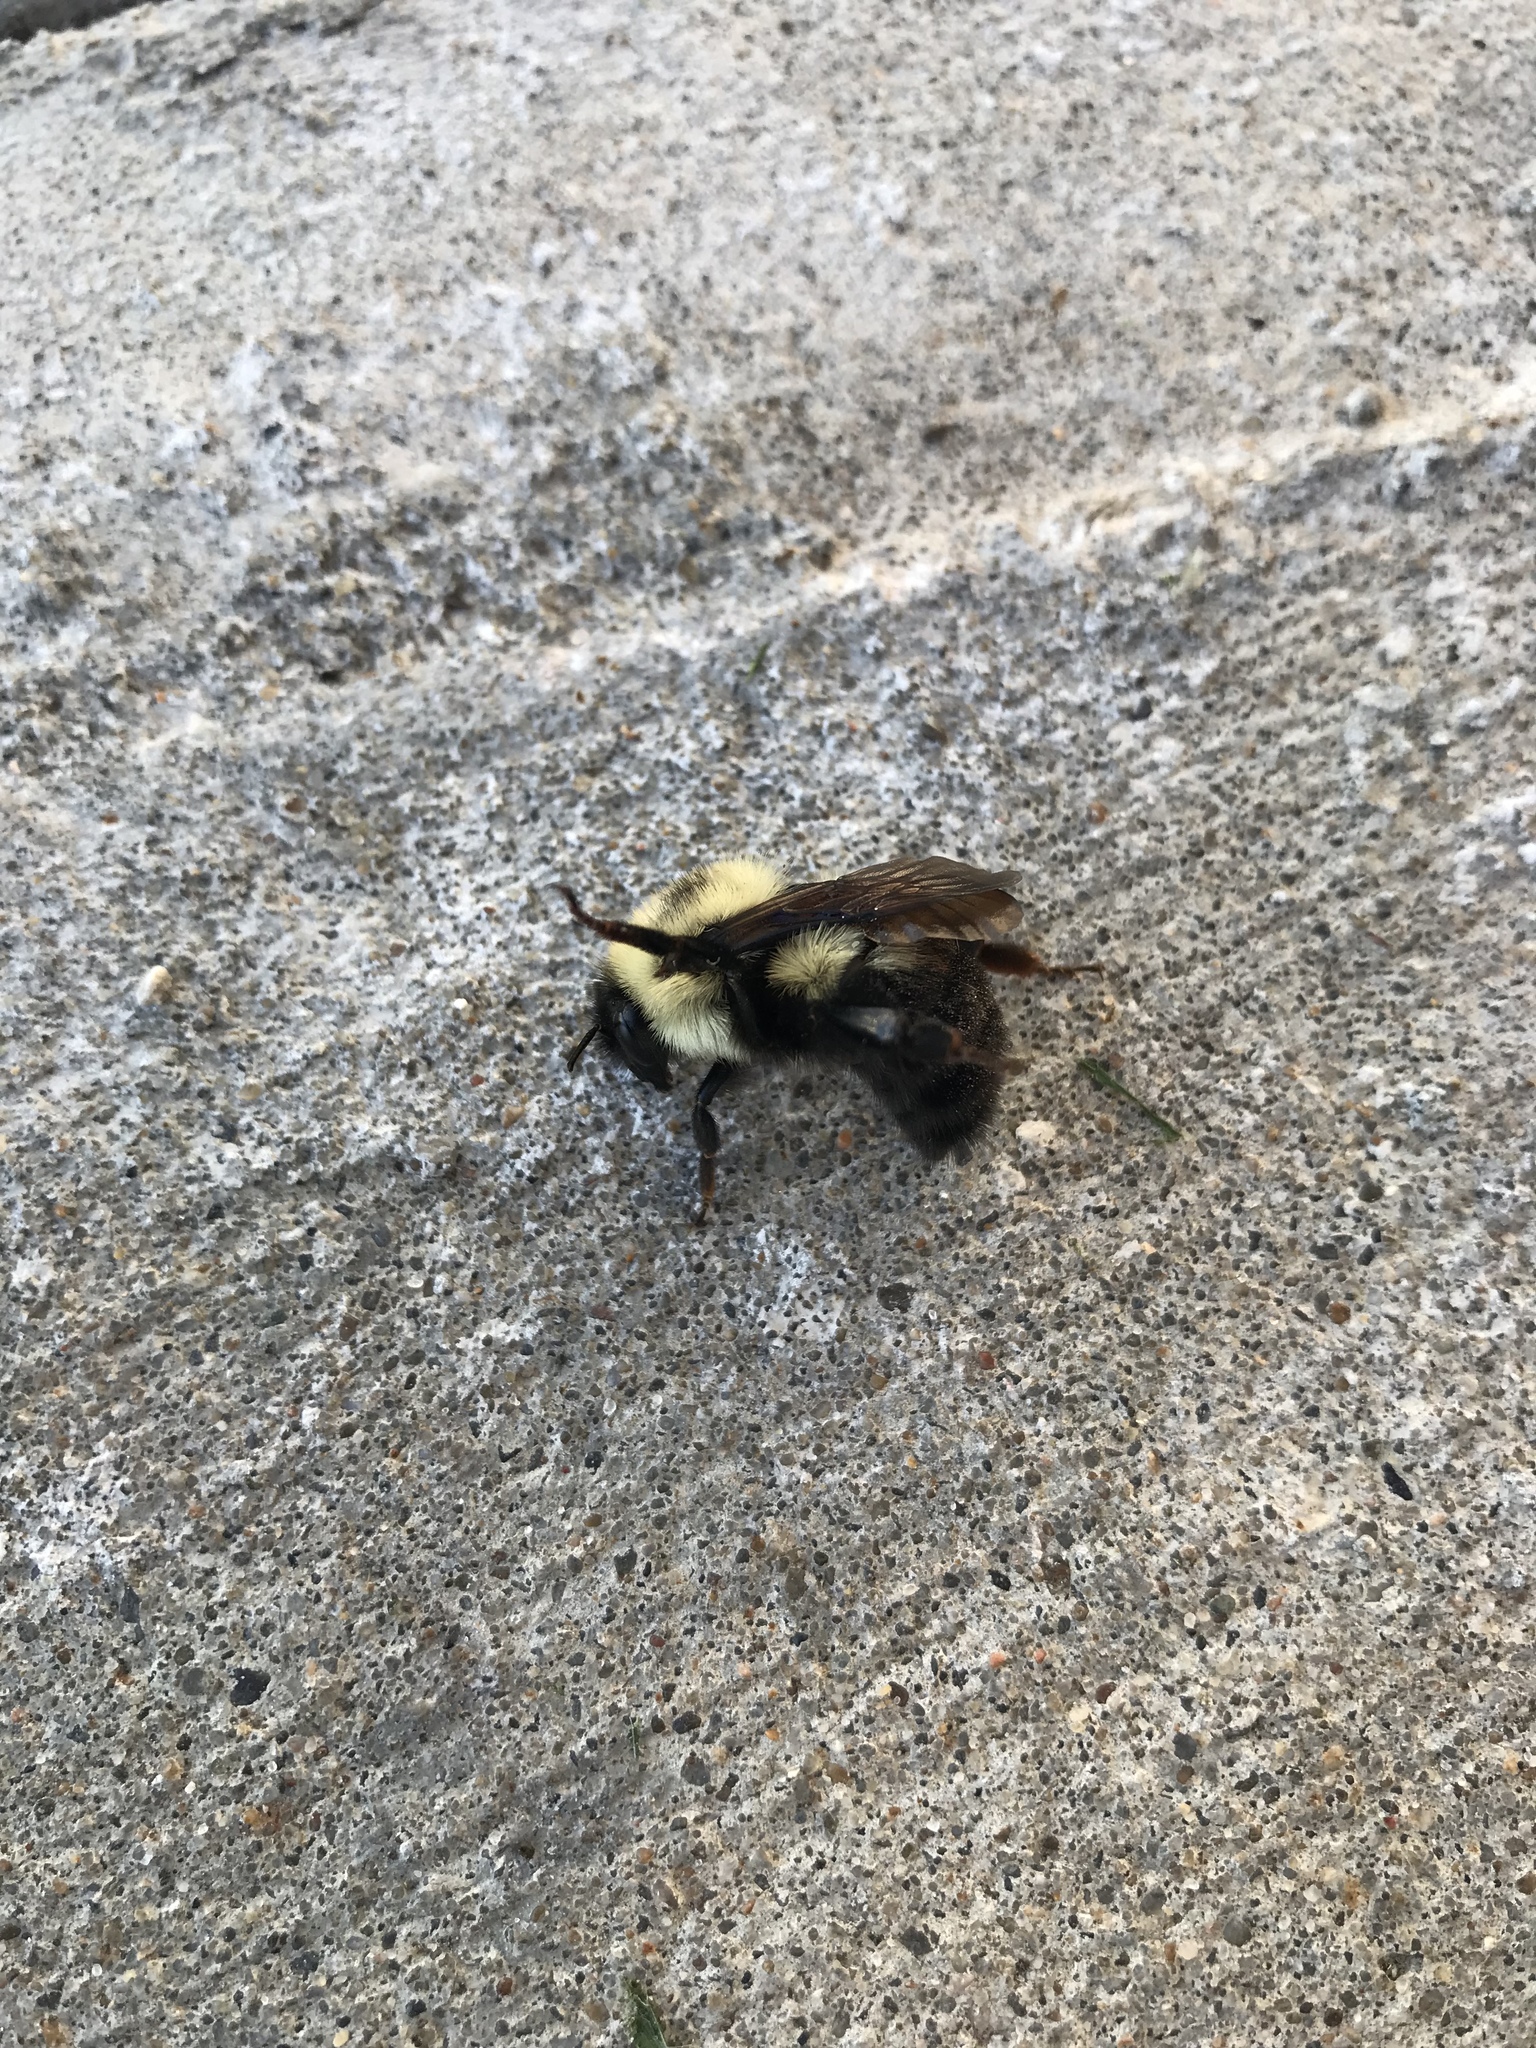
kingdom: Animalia
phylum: Arthropoda
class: Insecta
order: Hymenoptera
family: Apidae
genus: Bombus
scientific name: Bombus bimaculatus
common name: Two-spotted bumble bee
